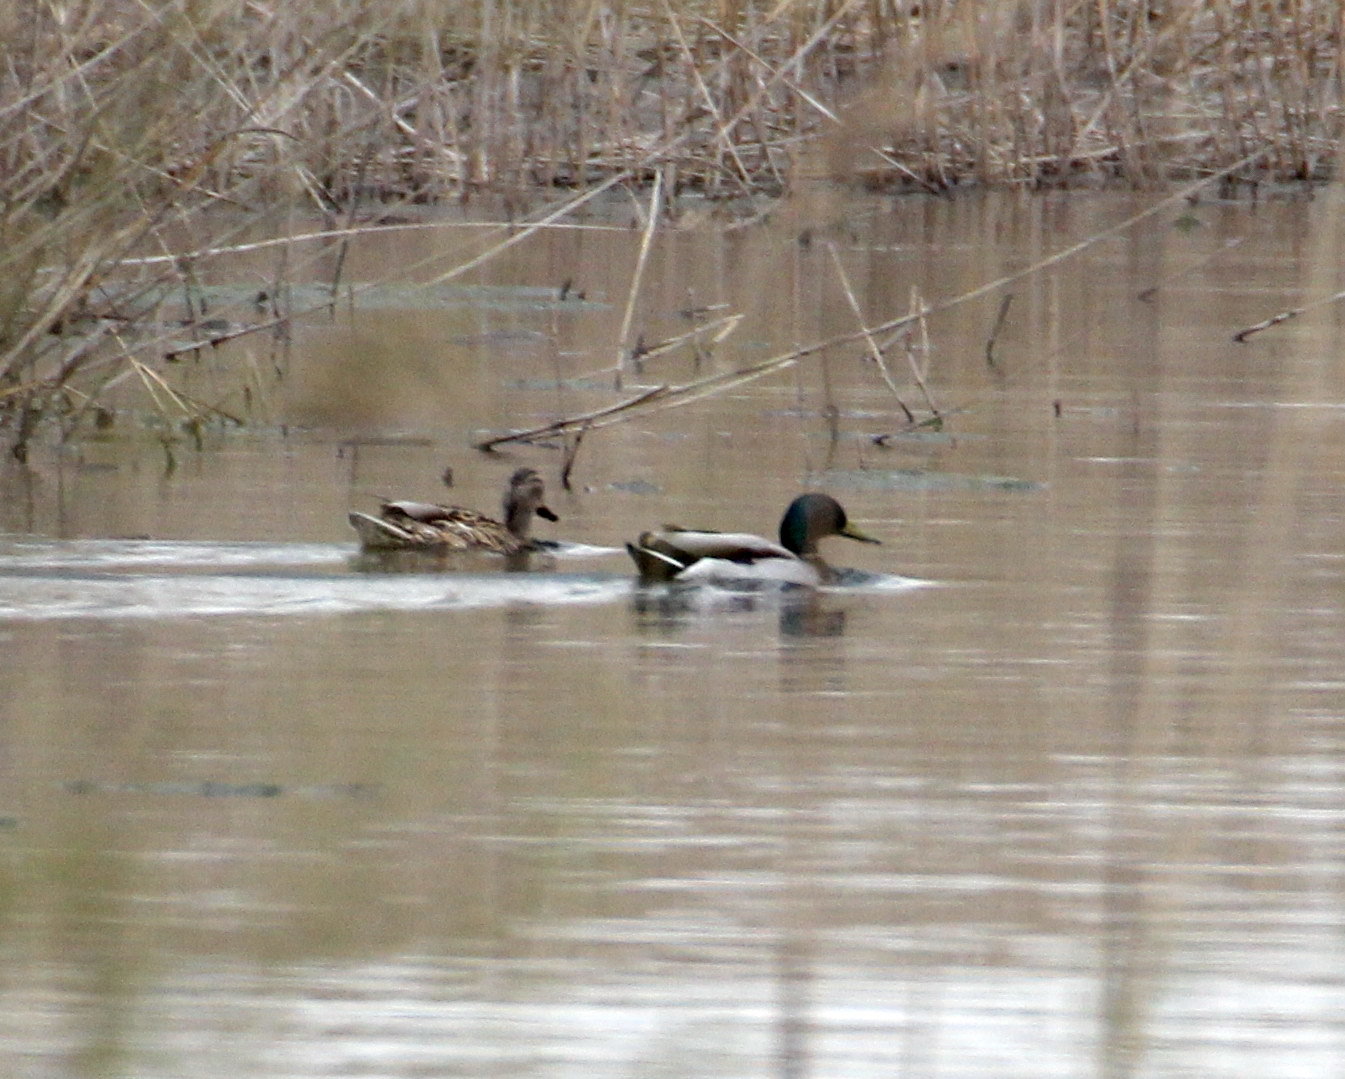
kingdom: Animalia
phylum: Chordata
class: Aves
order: Anseriformes
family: Anatidae
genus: Anas
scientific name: Anas platyrhynchos
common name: Mallard
